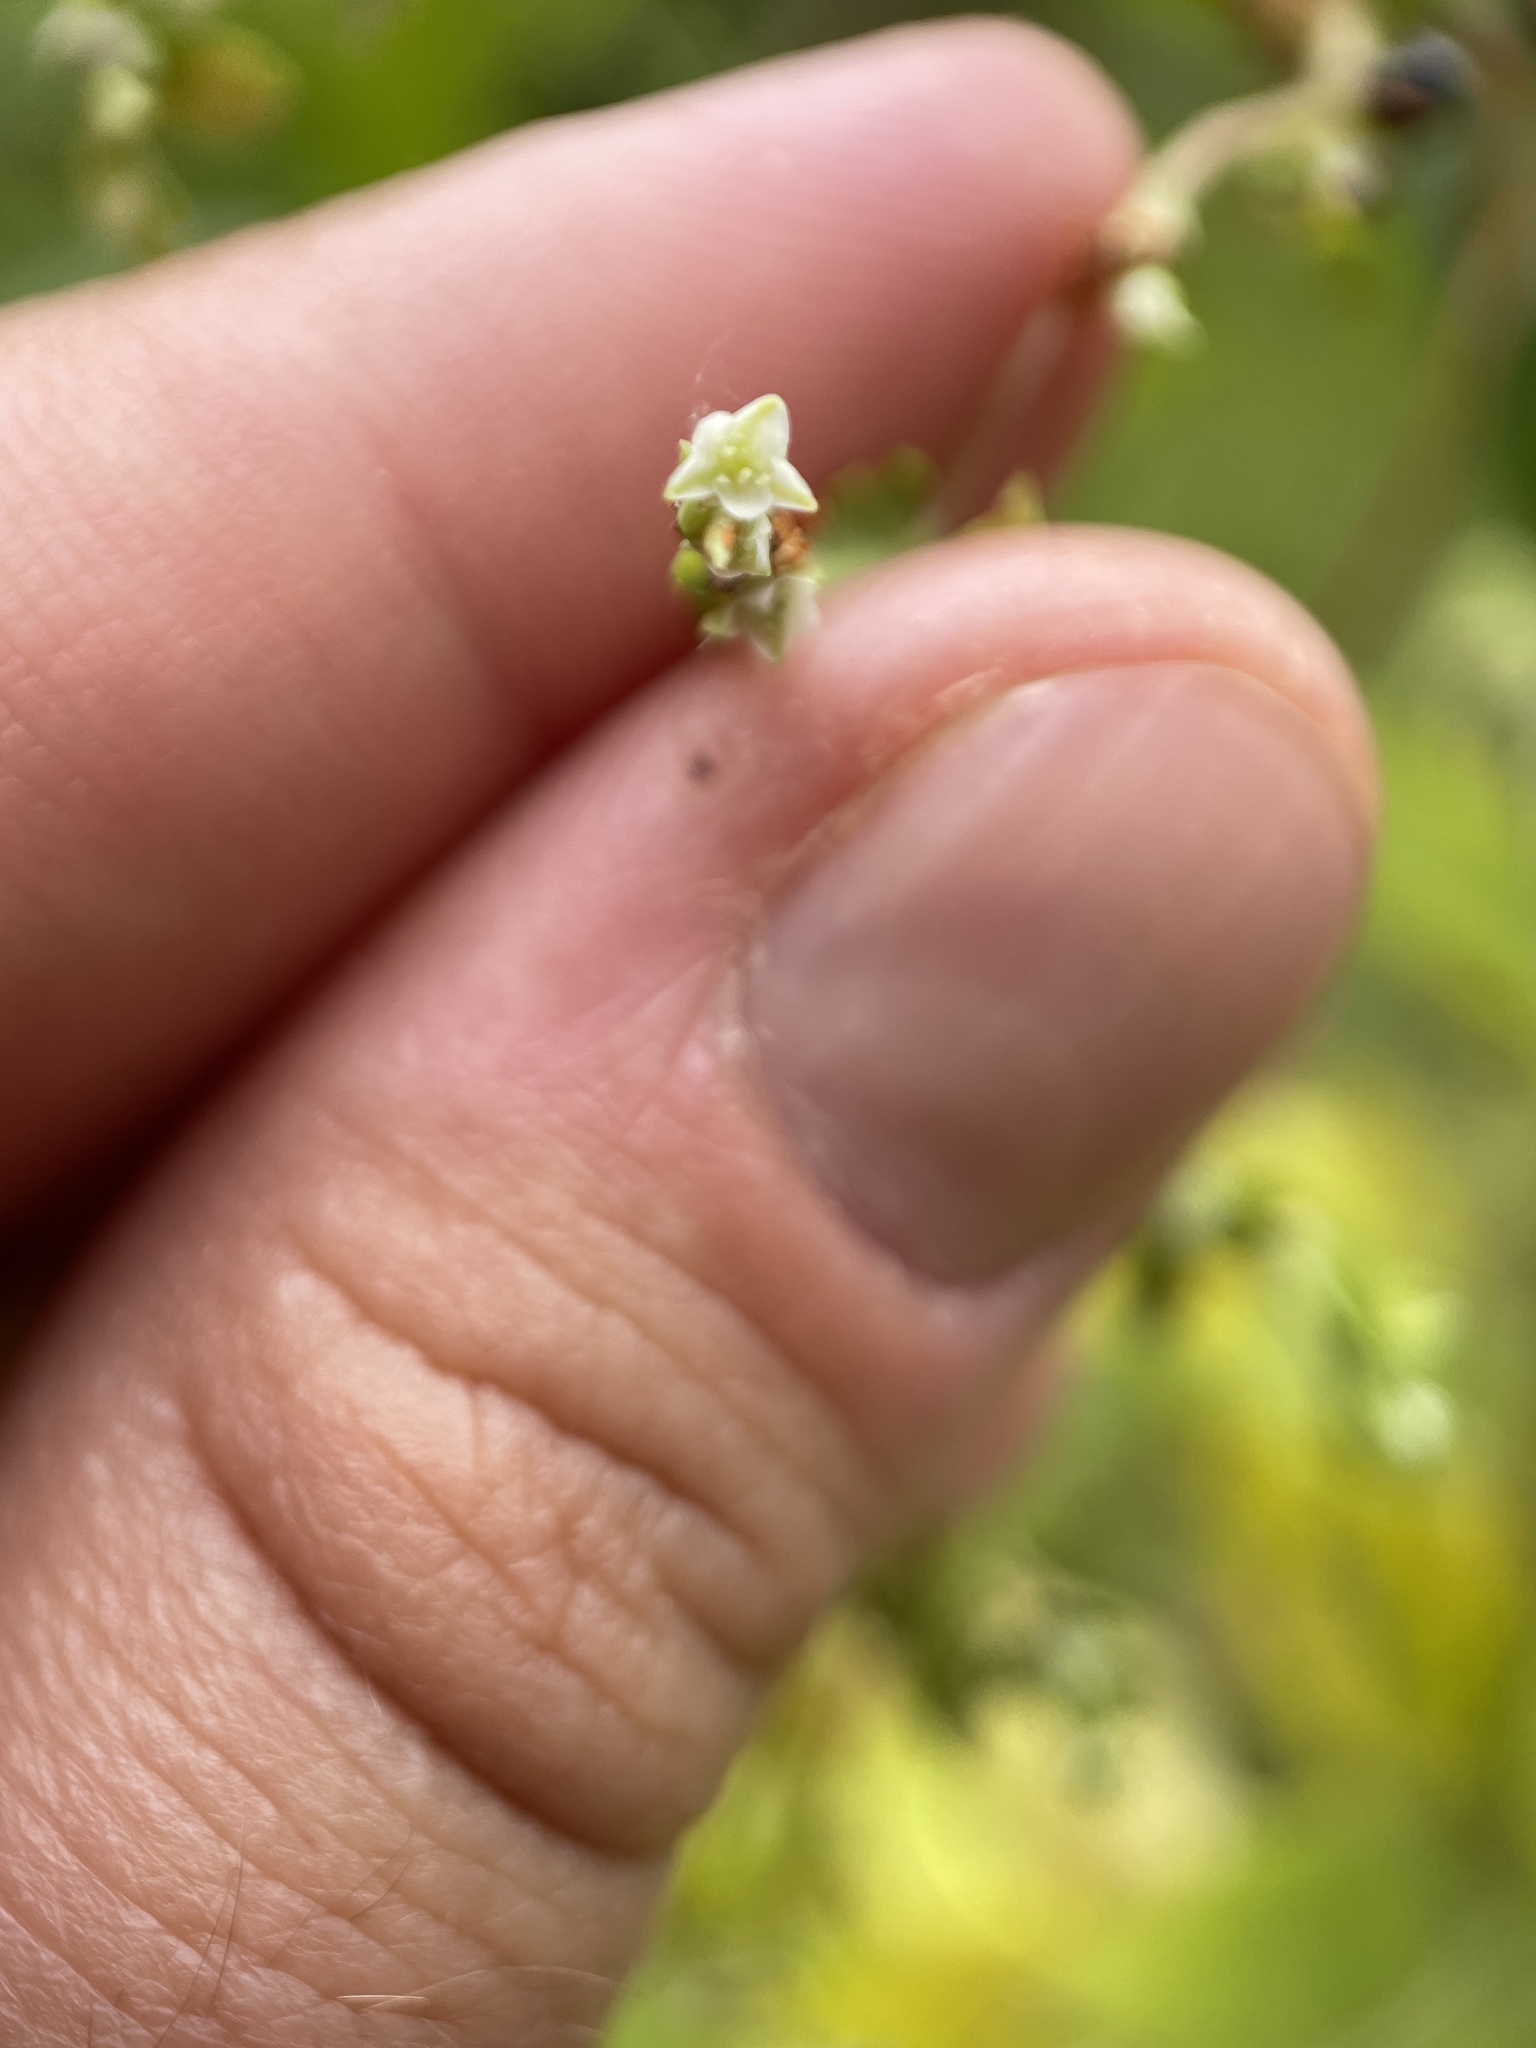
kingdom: Plantae
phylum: Tracheophyta
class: Magnoliopsida
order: Caryophyllales
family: Polygonaceae
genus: Fallopia
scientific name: Fallopia scandens
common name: Climbing false buckwheat
